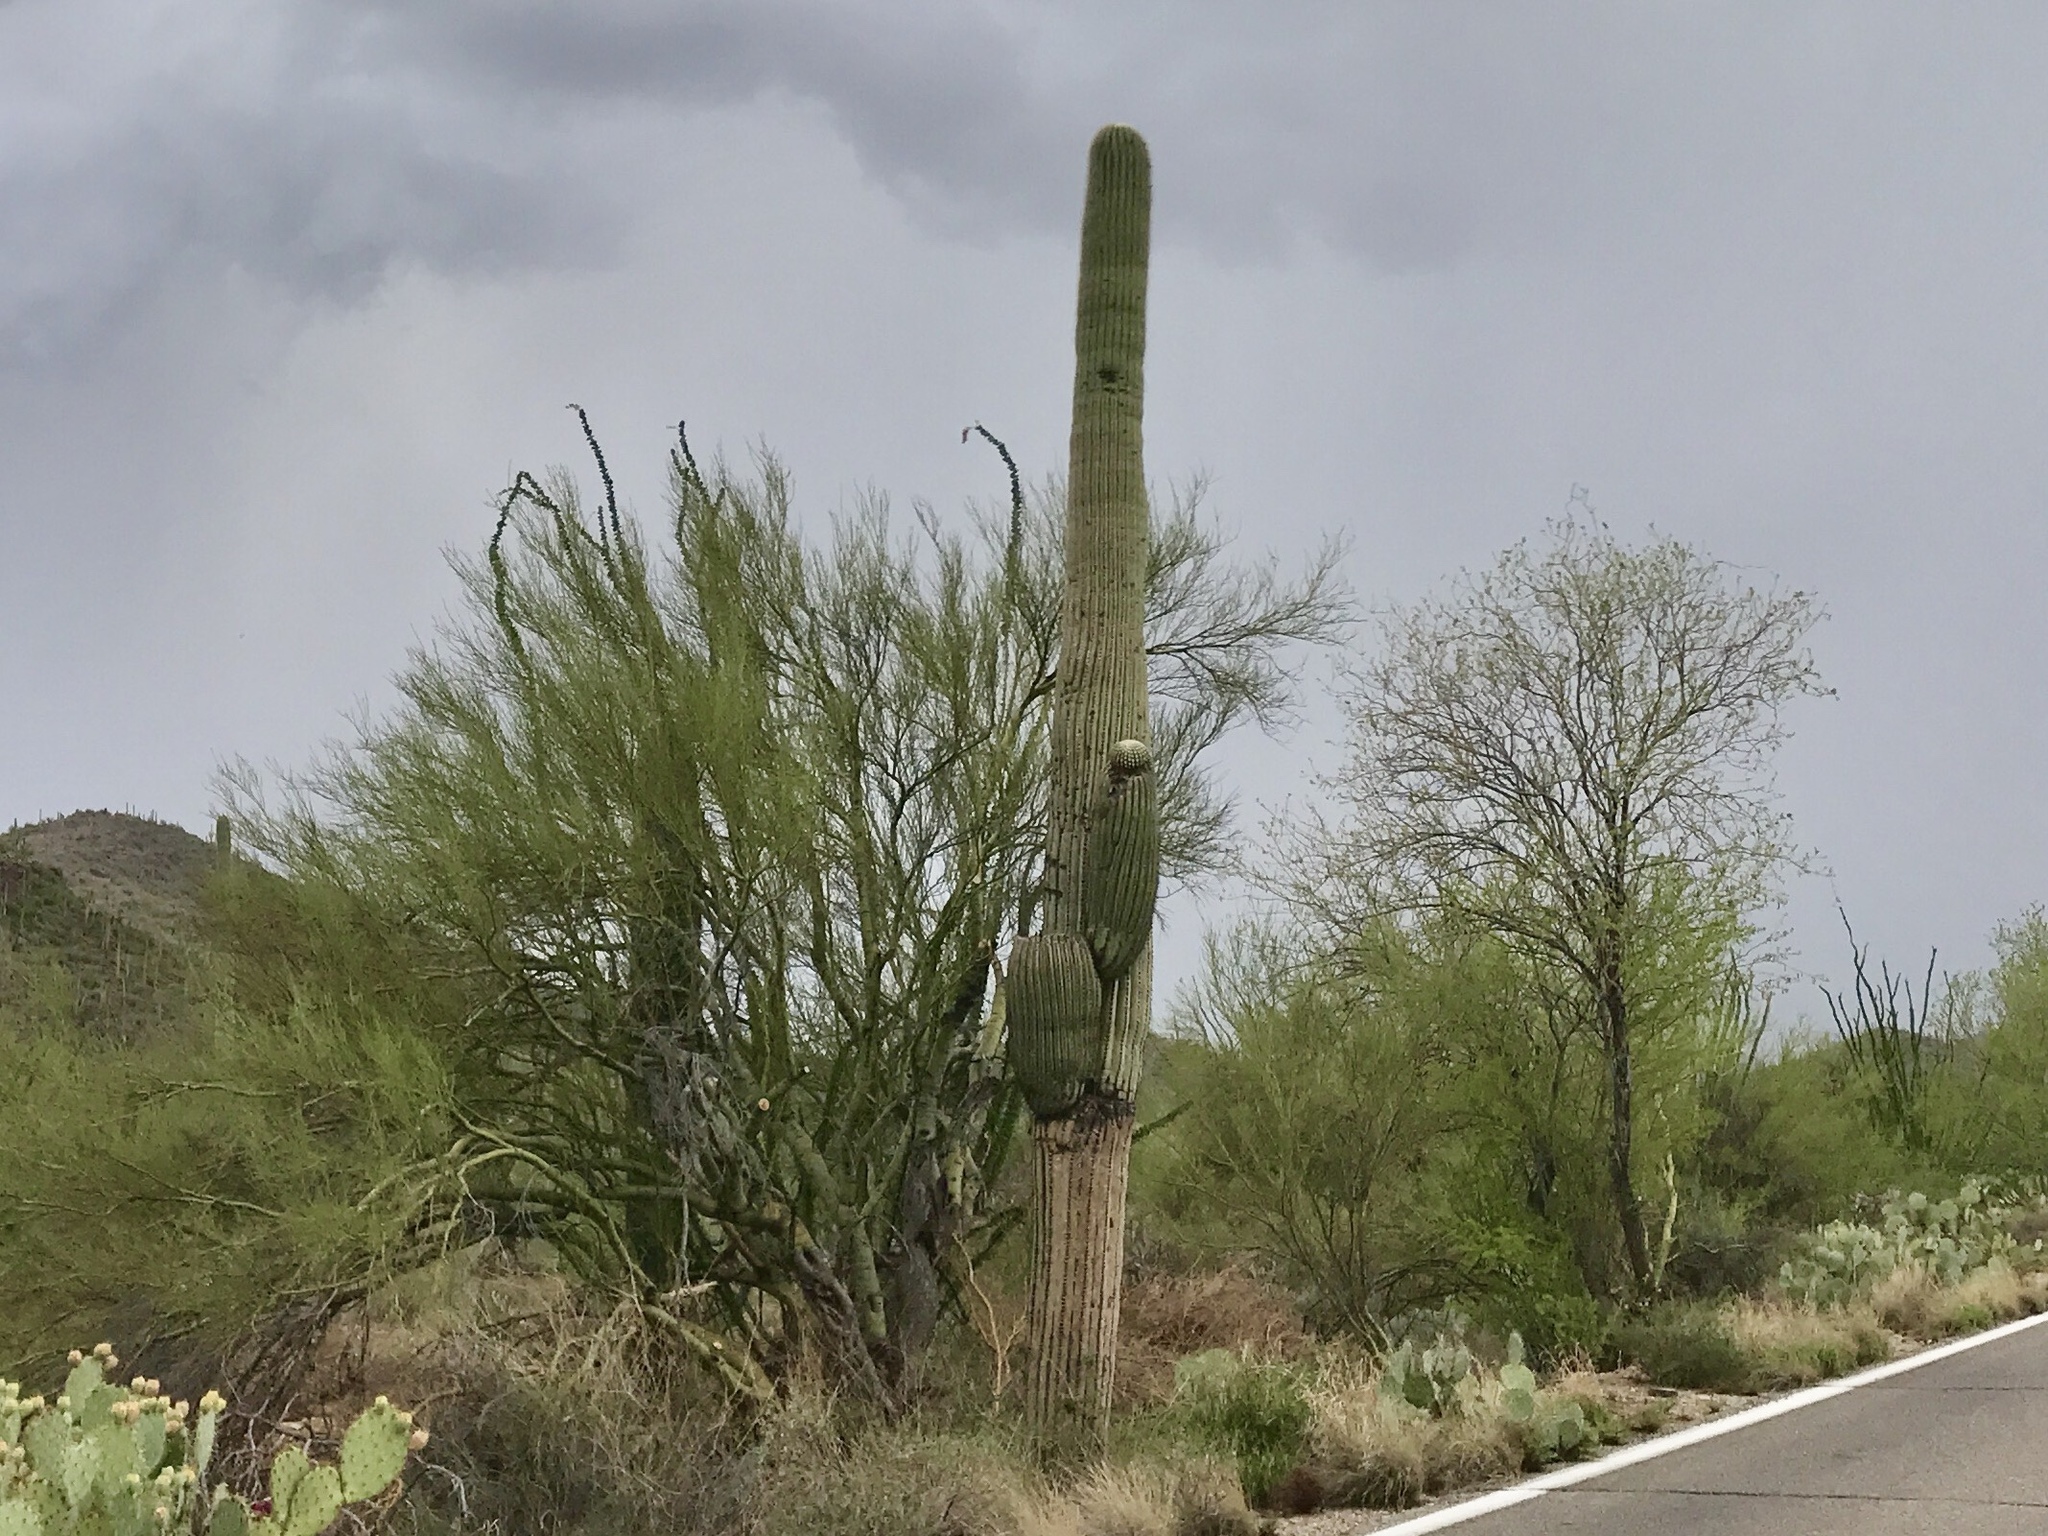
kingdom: Plantae
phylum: Tracheophyta
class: Magnoliopsida
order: Caryophyllales
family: Cactaceae
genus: Carnegiea
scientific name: Carnegiea gigantea
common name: Saguaro
